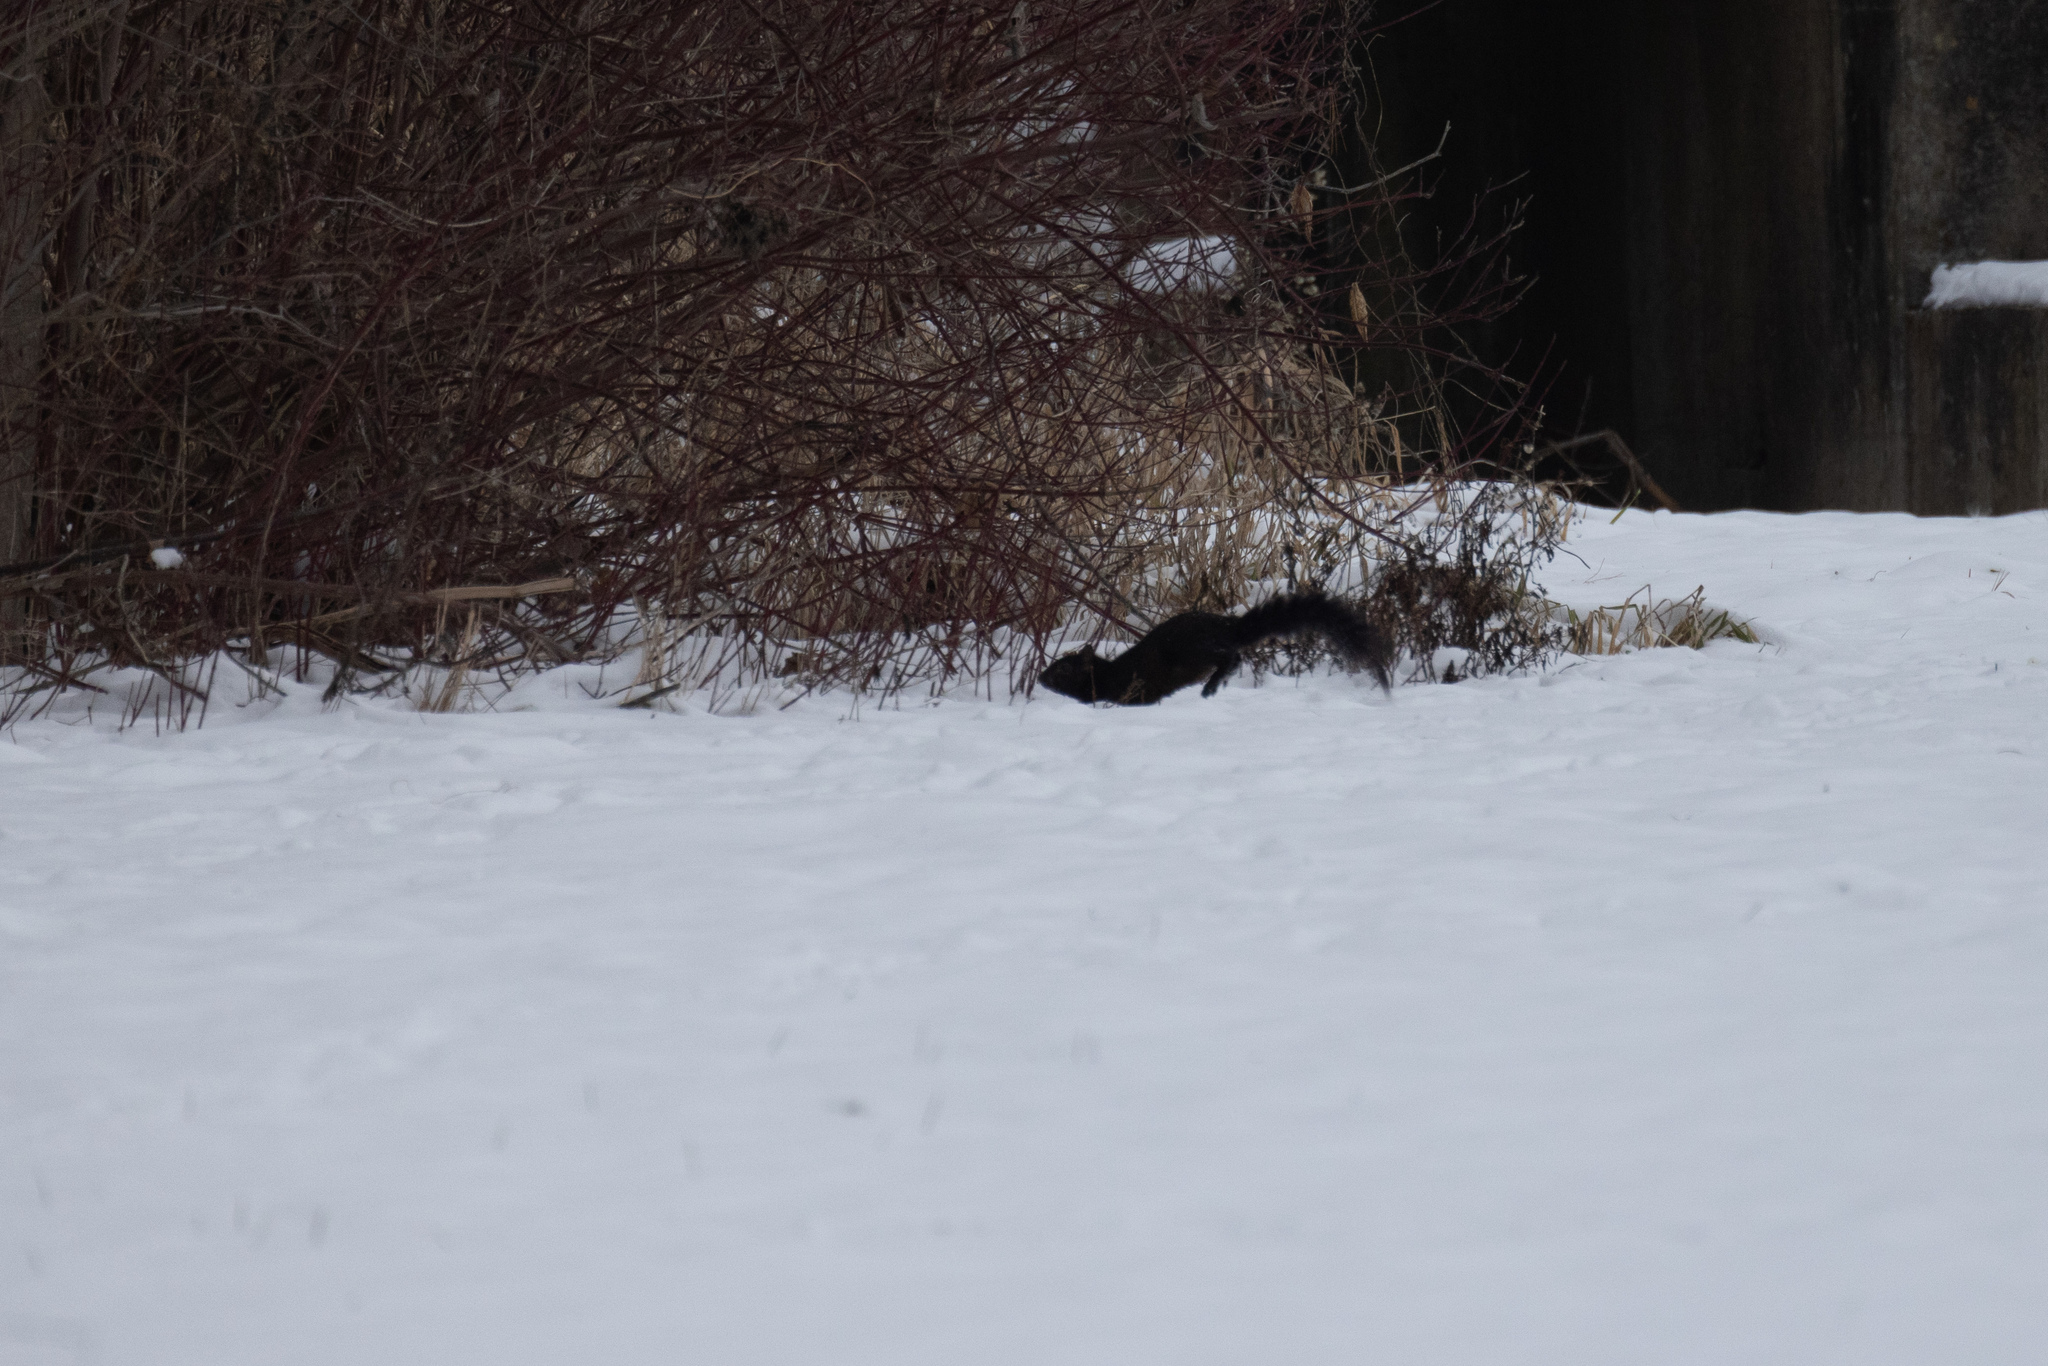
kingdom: Animalia
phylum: Chordata
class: Mammalia
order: Rodentia
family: Sciuridae
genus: Sciurus
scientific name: Sciurus carolinensis
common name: Eastern gray squirrel
